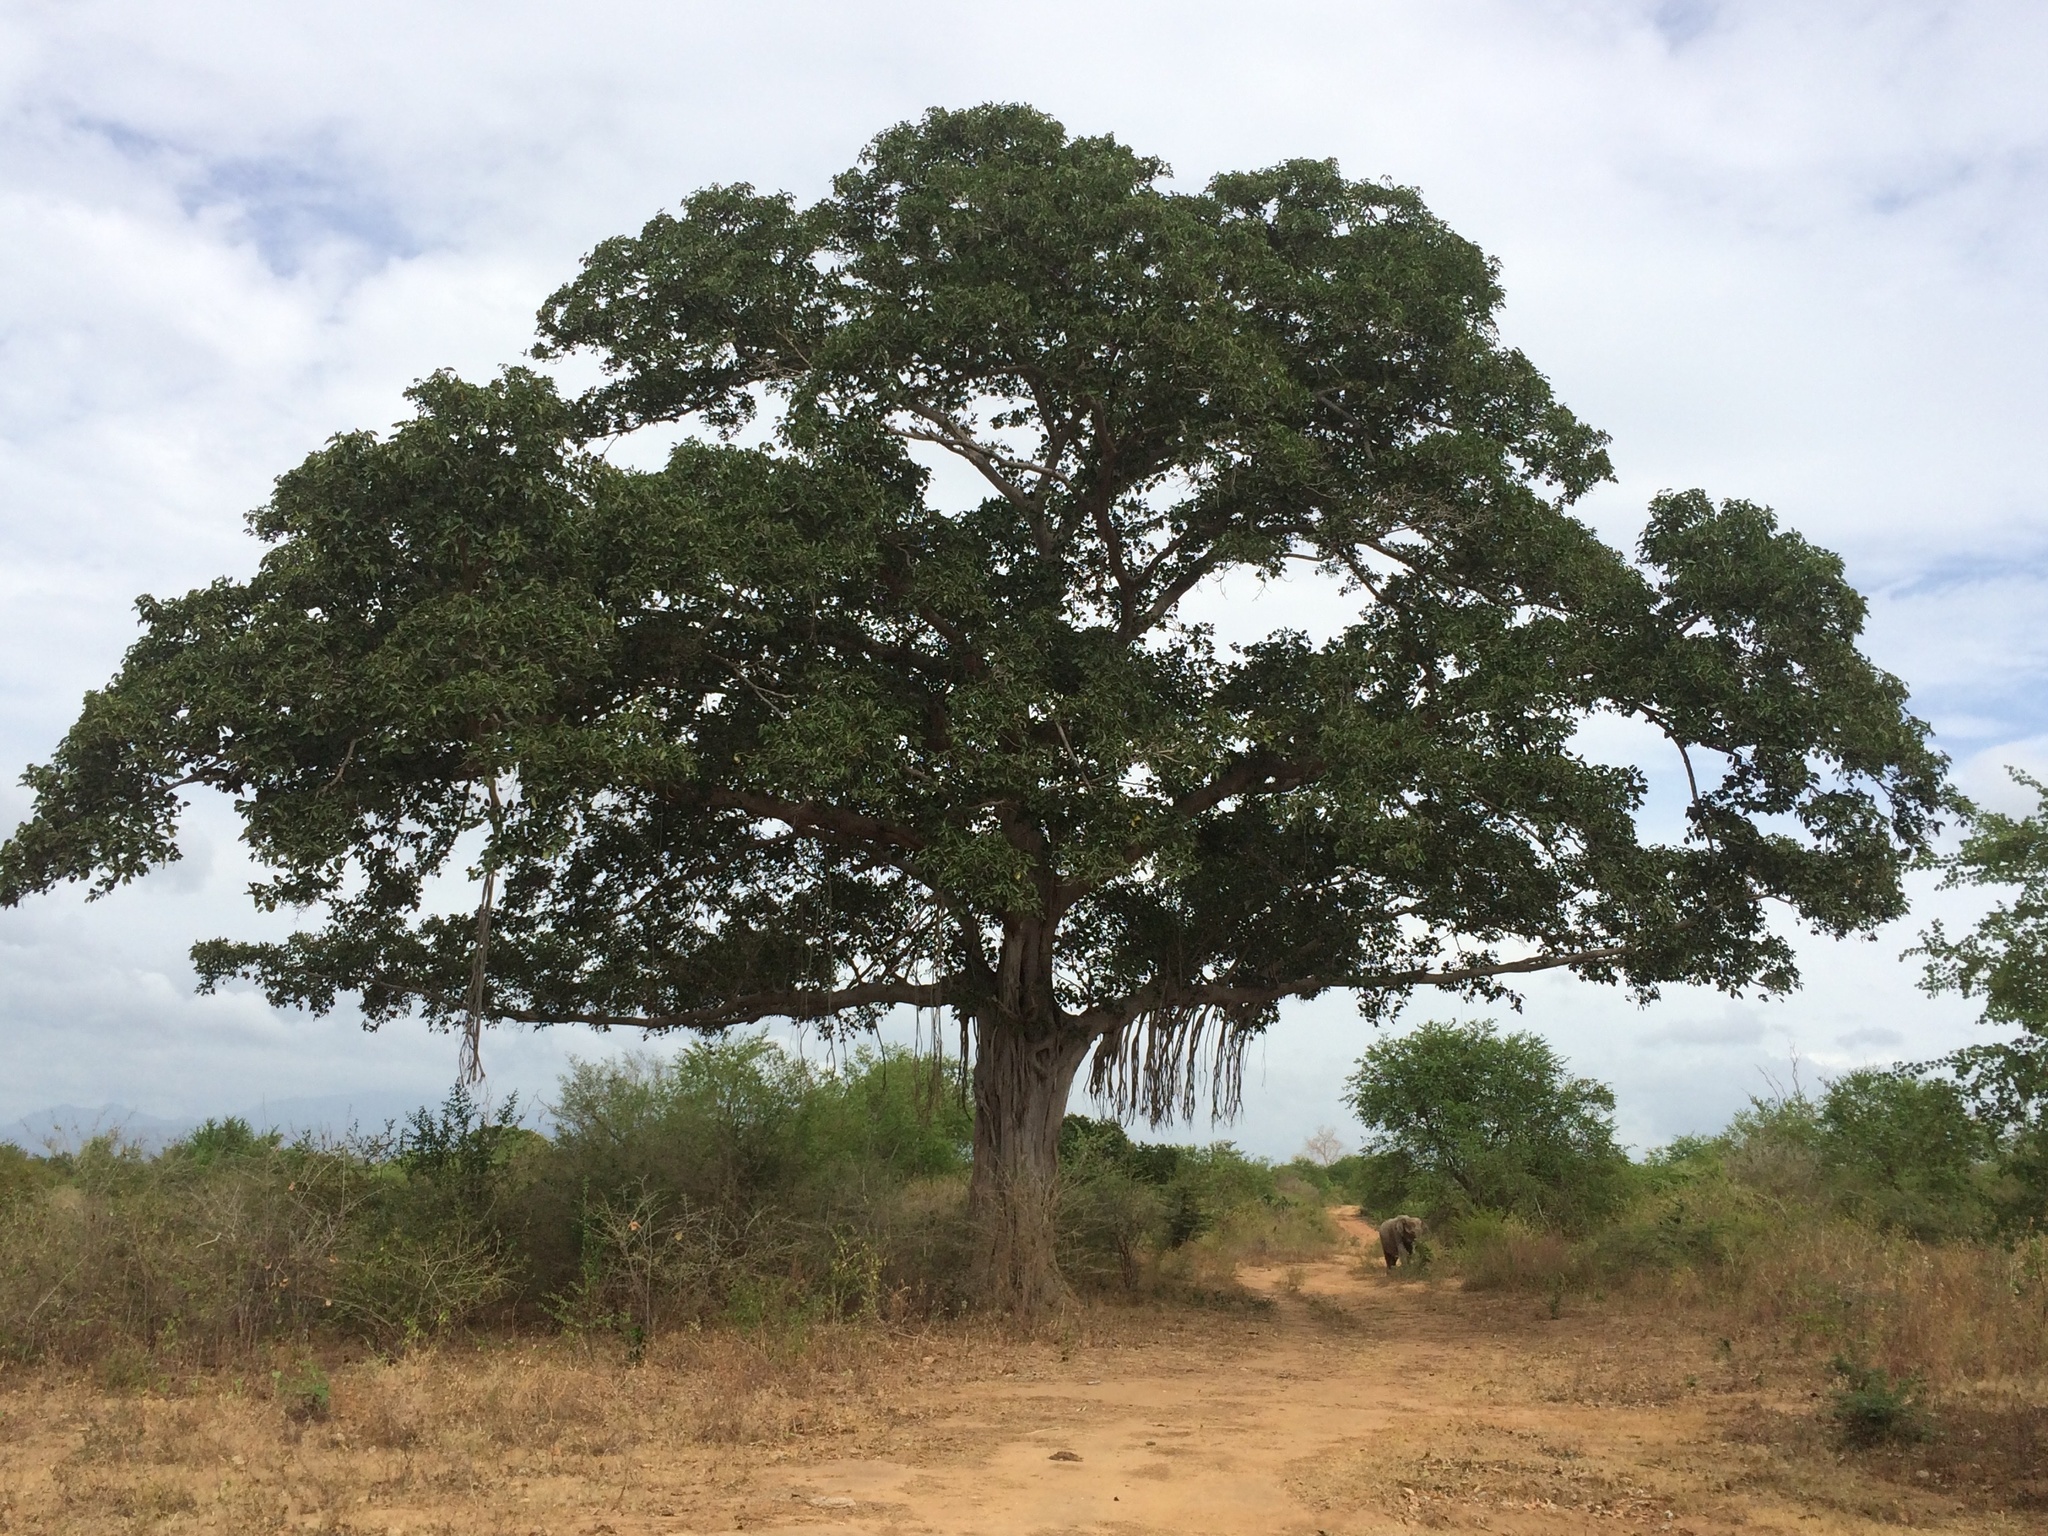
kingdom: Plantae
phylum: Tracheophyta
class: Magnoliopsida
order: Rosales
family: Moraceae
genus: Ficus
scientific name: Ficus benghalensis
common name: Indian banyan
